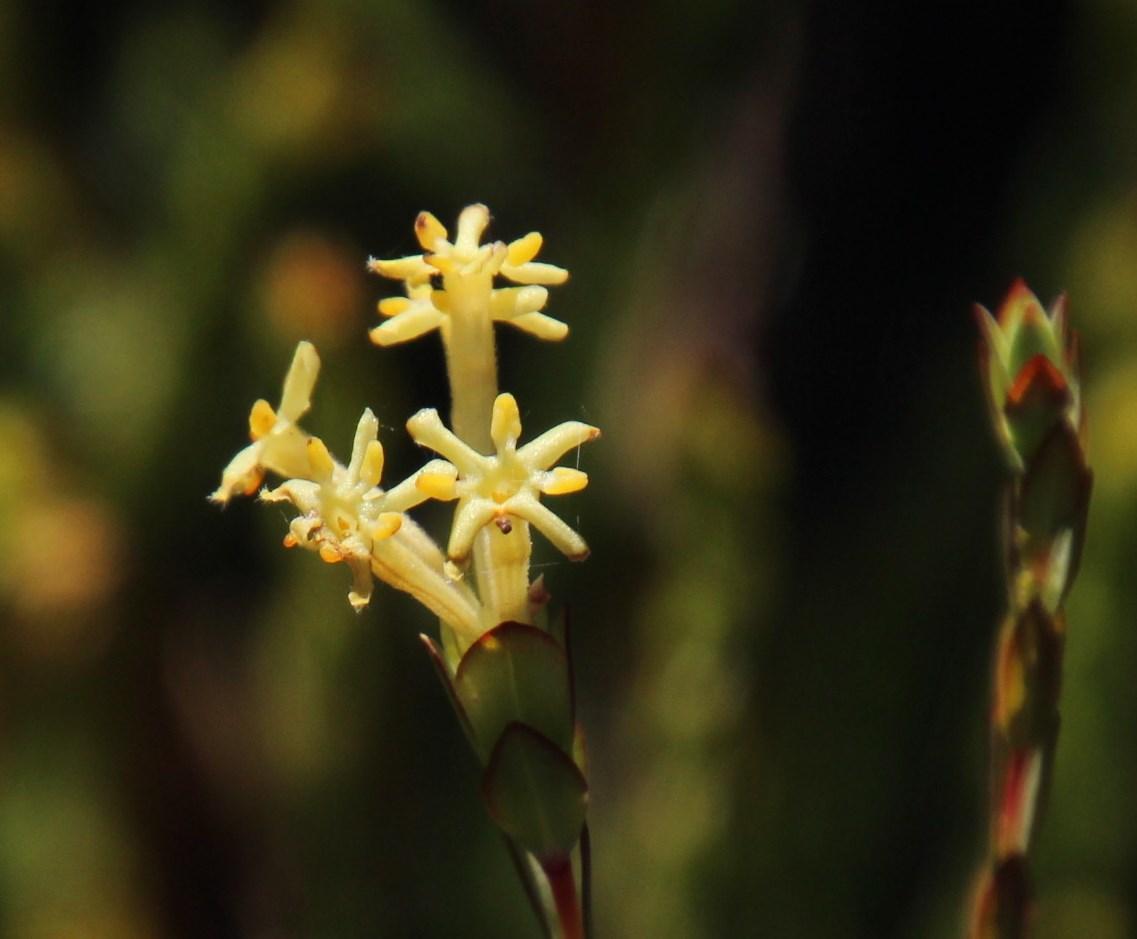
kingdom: Plantae
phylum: Tracheophyta
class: Magnoliopsida
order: Malvales
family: Thymelaeaceae
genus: Gnidia
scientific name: Gnidia oppositifolia
